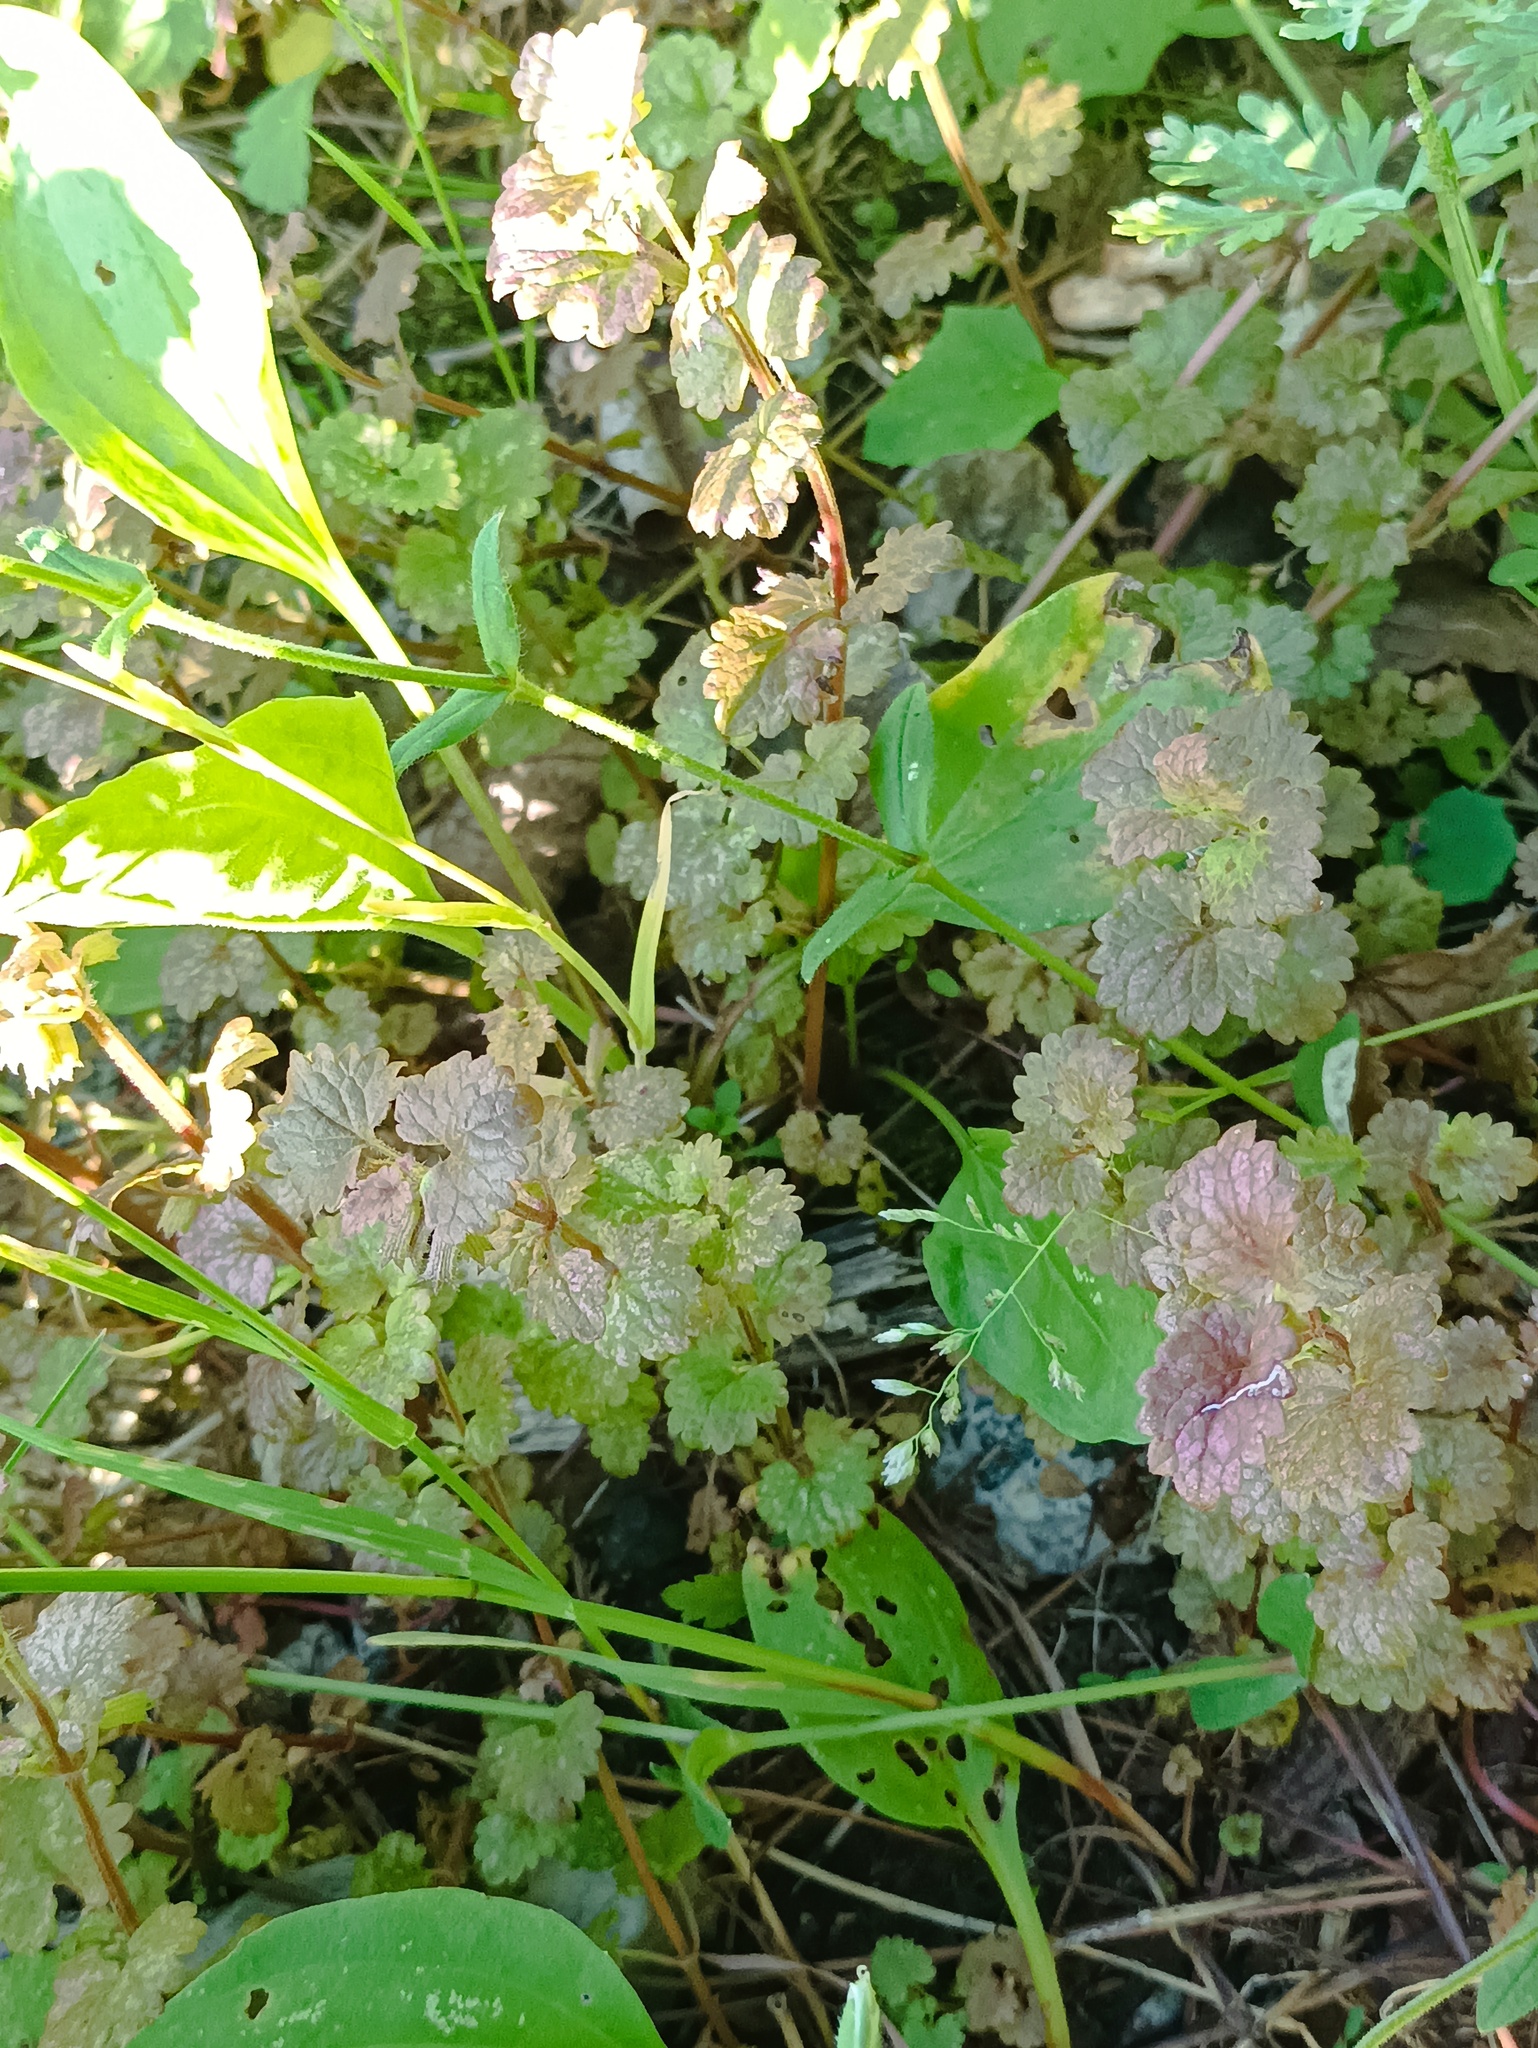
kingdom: Plantae
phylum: Tracheophyta
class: Magnoliopsida
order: Lamiales
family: Lamiaceae
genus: Glechoma
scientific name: Glechoma hederacea
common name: Ground ivy
